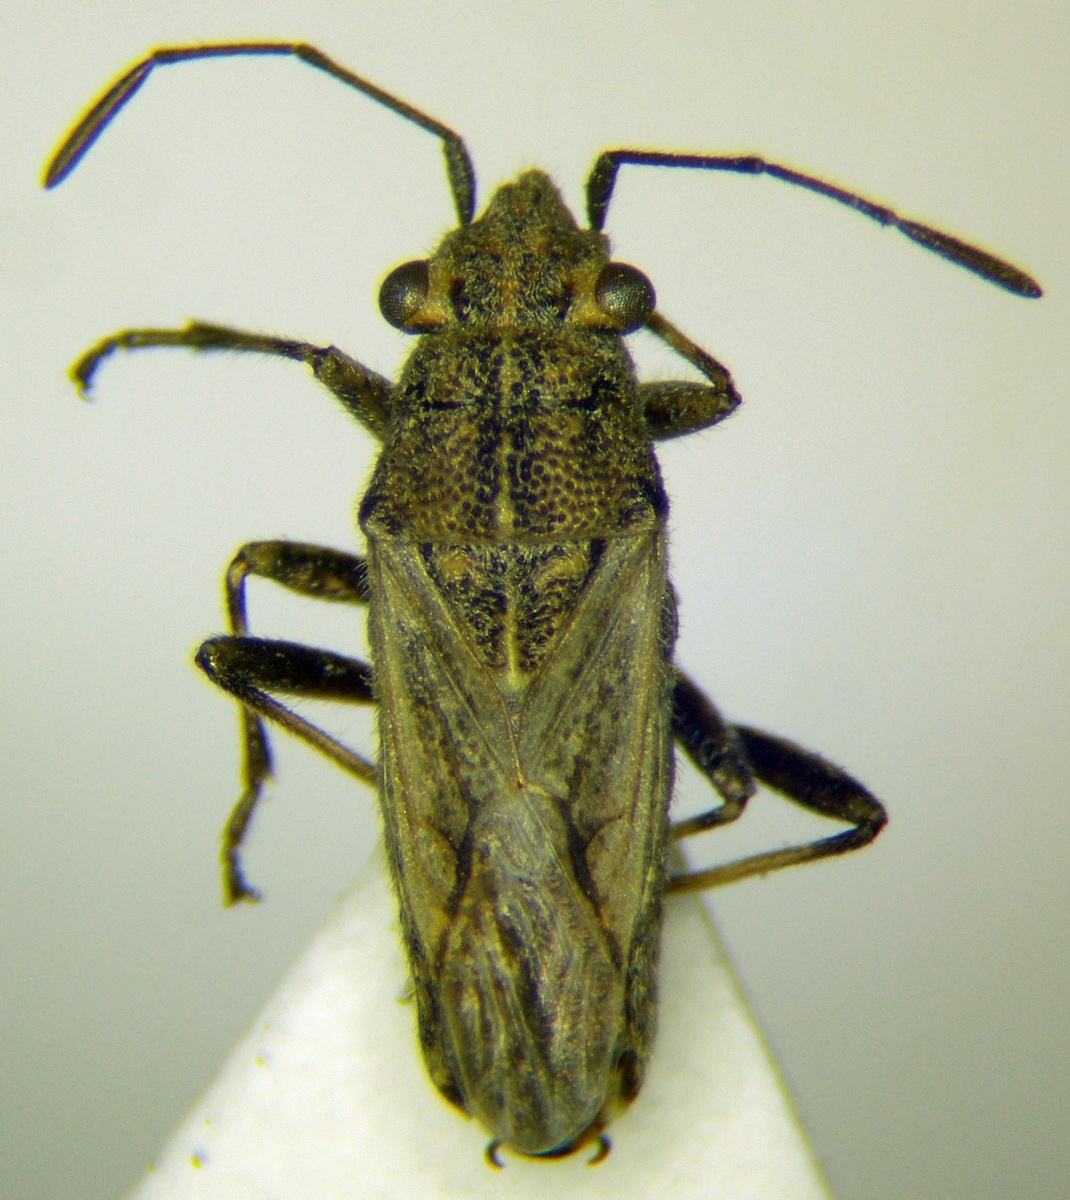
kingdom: Animalia
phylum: Arthropoda
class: Insecta
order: Hemiptera
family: Lygaeidae
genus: Ortholomus
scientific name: Ortholomus punctipennis
